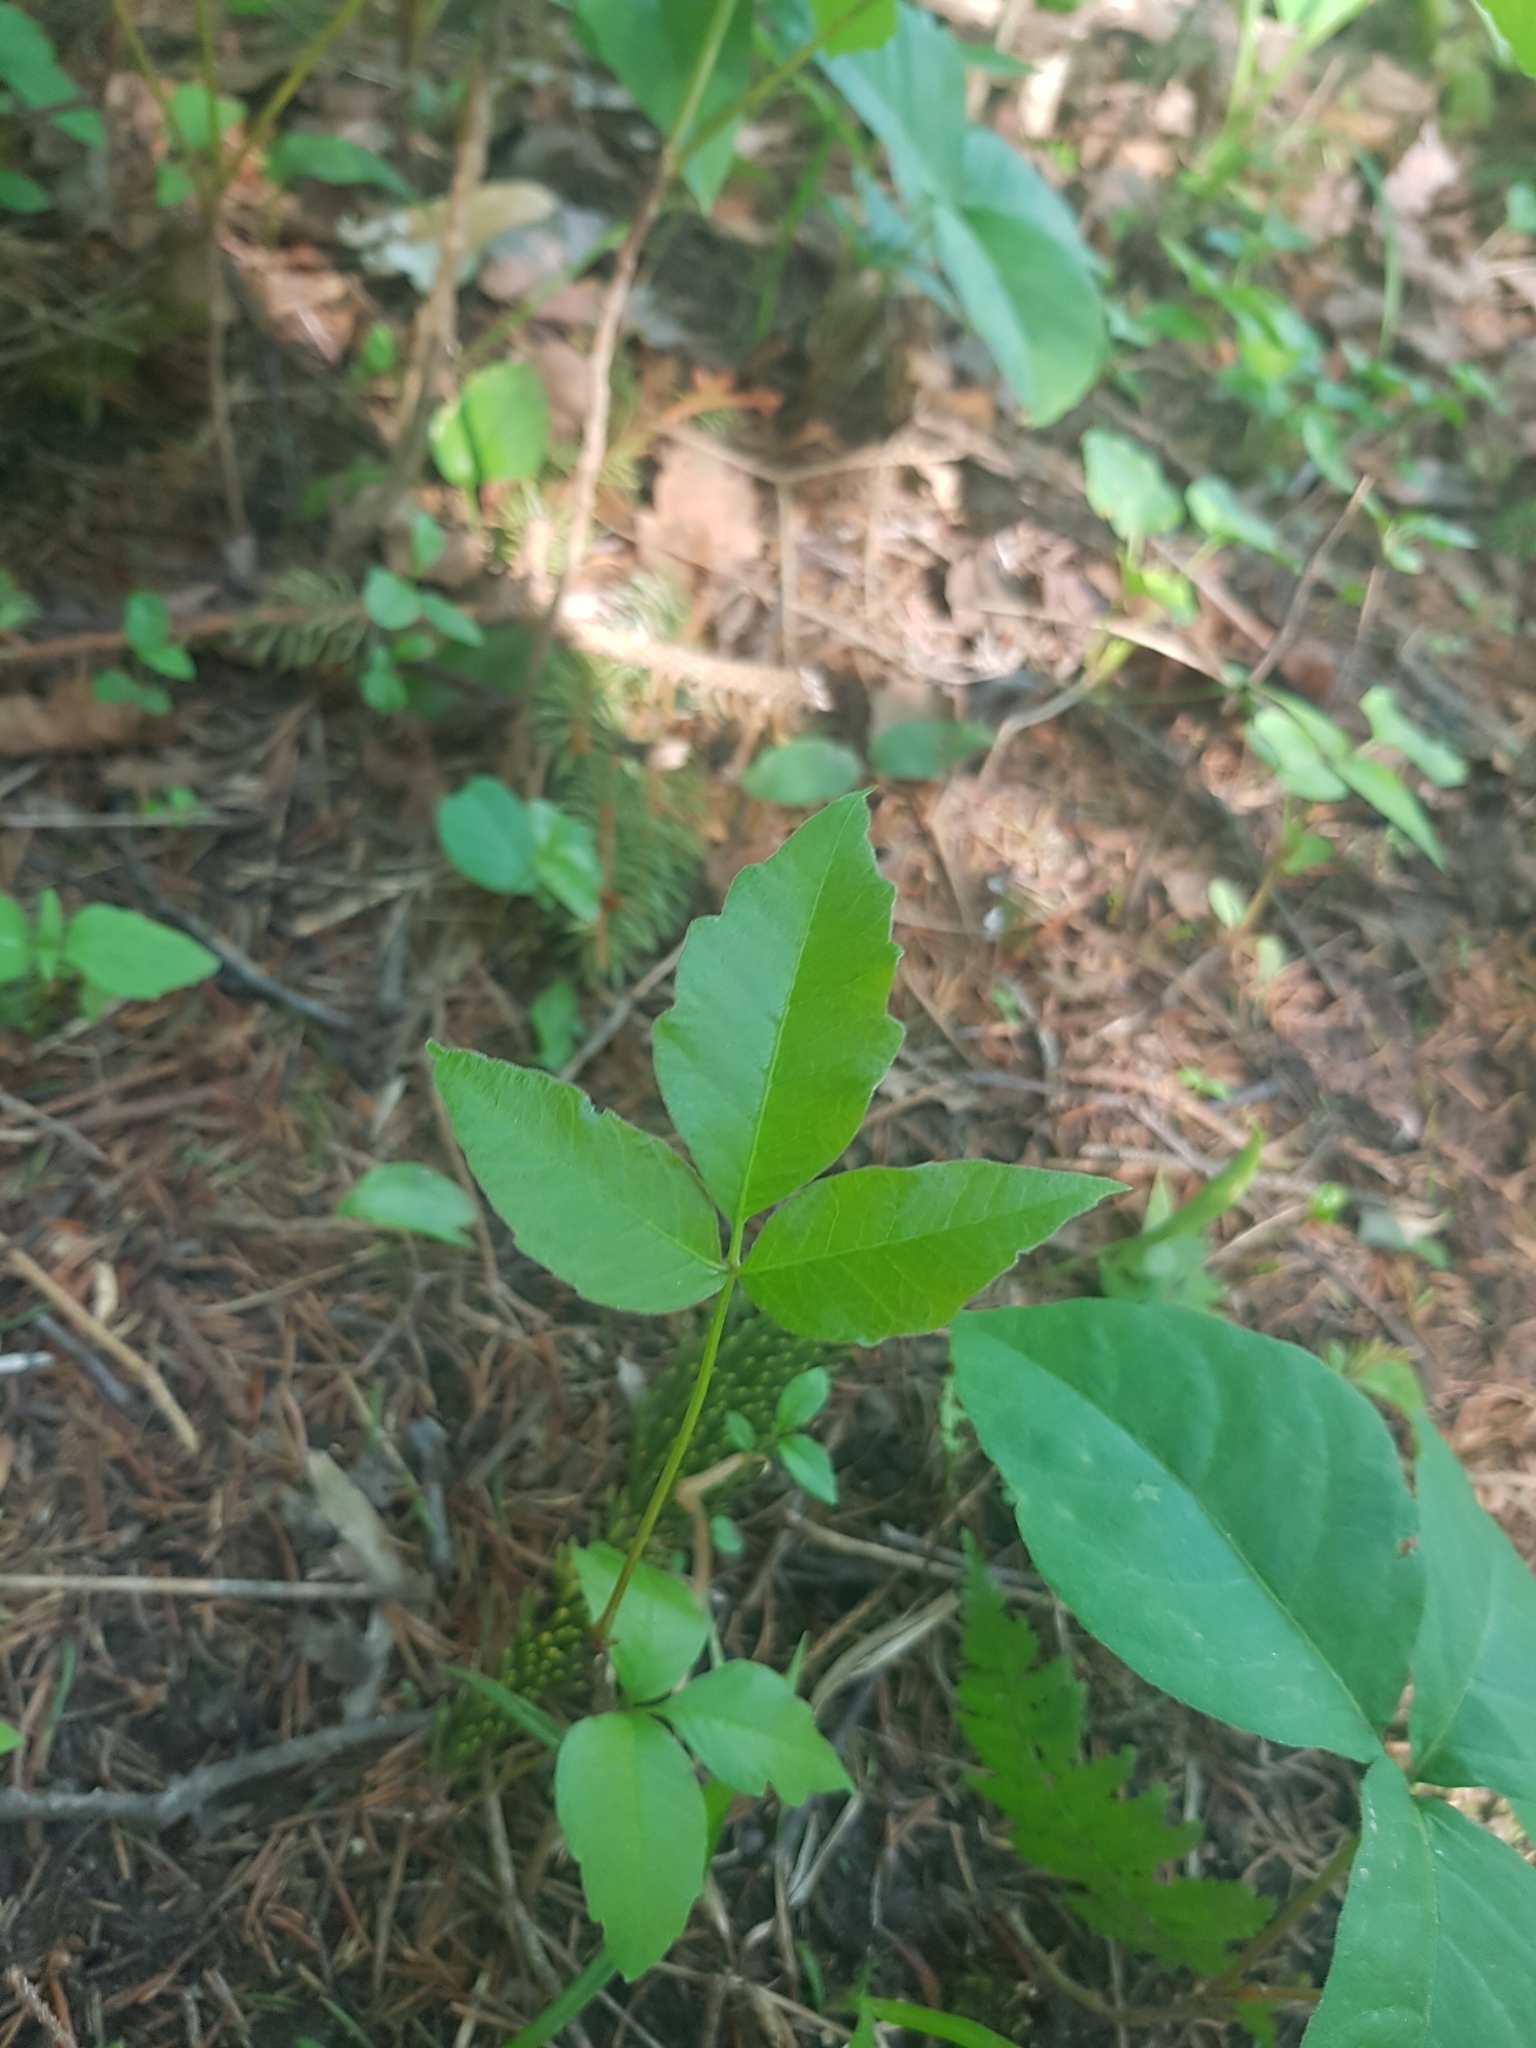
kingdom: Plantae
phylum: Tracheophyta
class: Magnoliopsida
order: Sapindales
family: Anacardiaceae
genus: Toxicodendron
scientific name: Toxicodendron radicans
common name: Poison ivy
